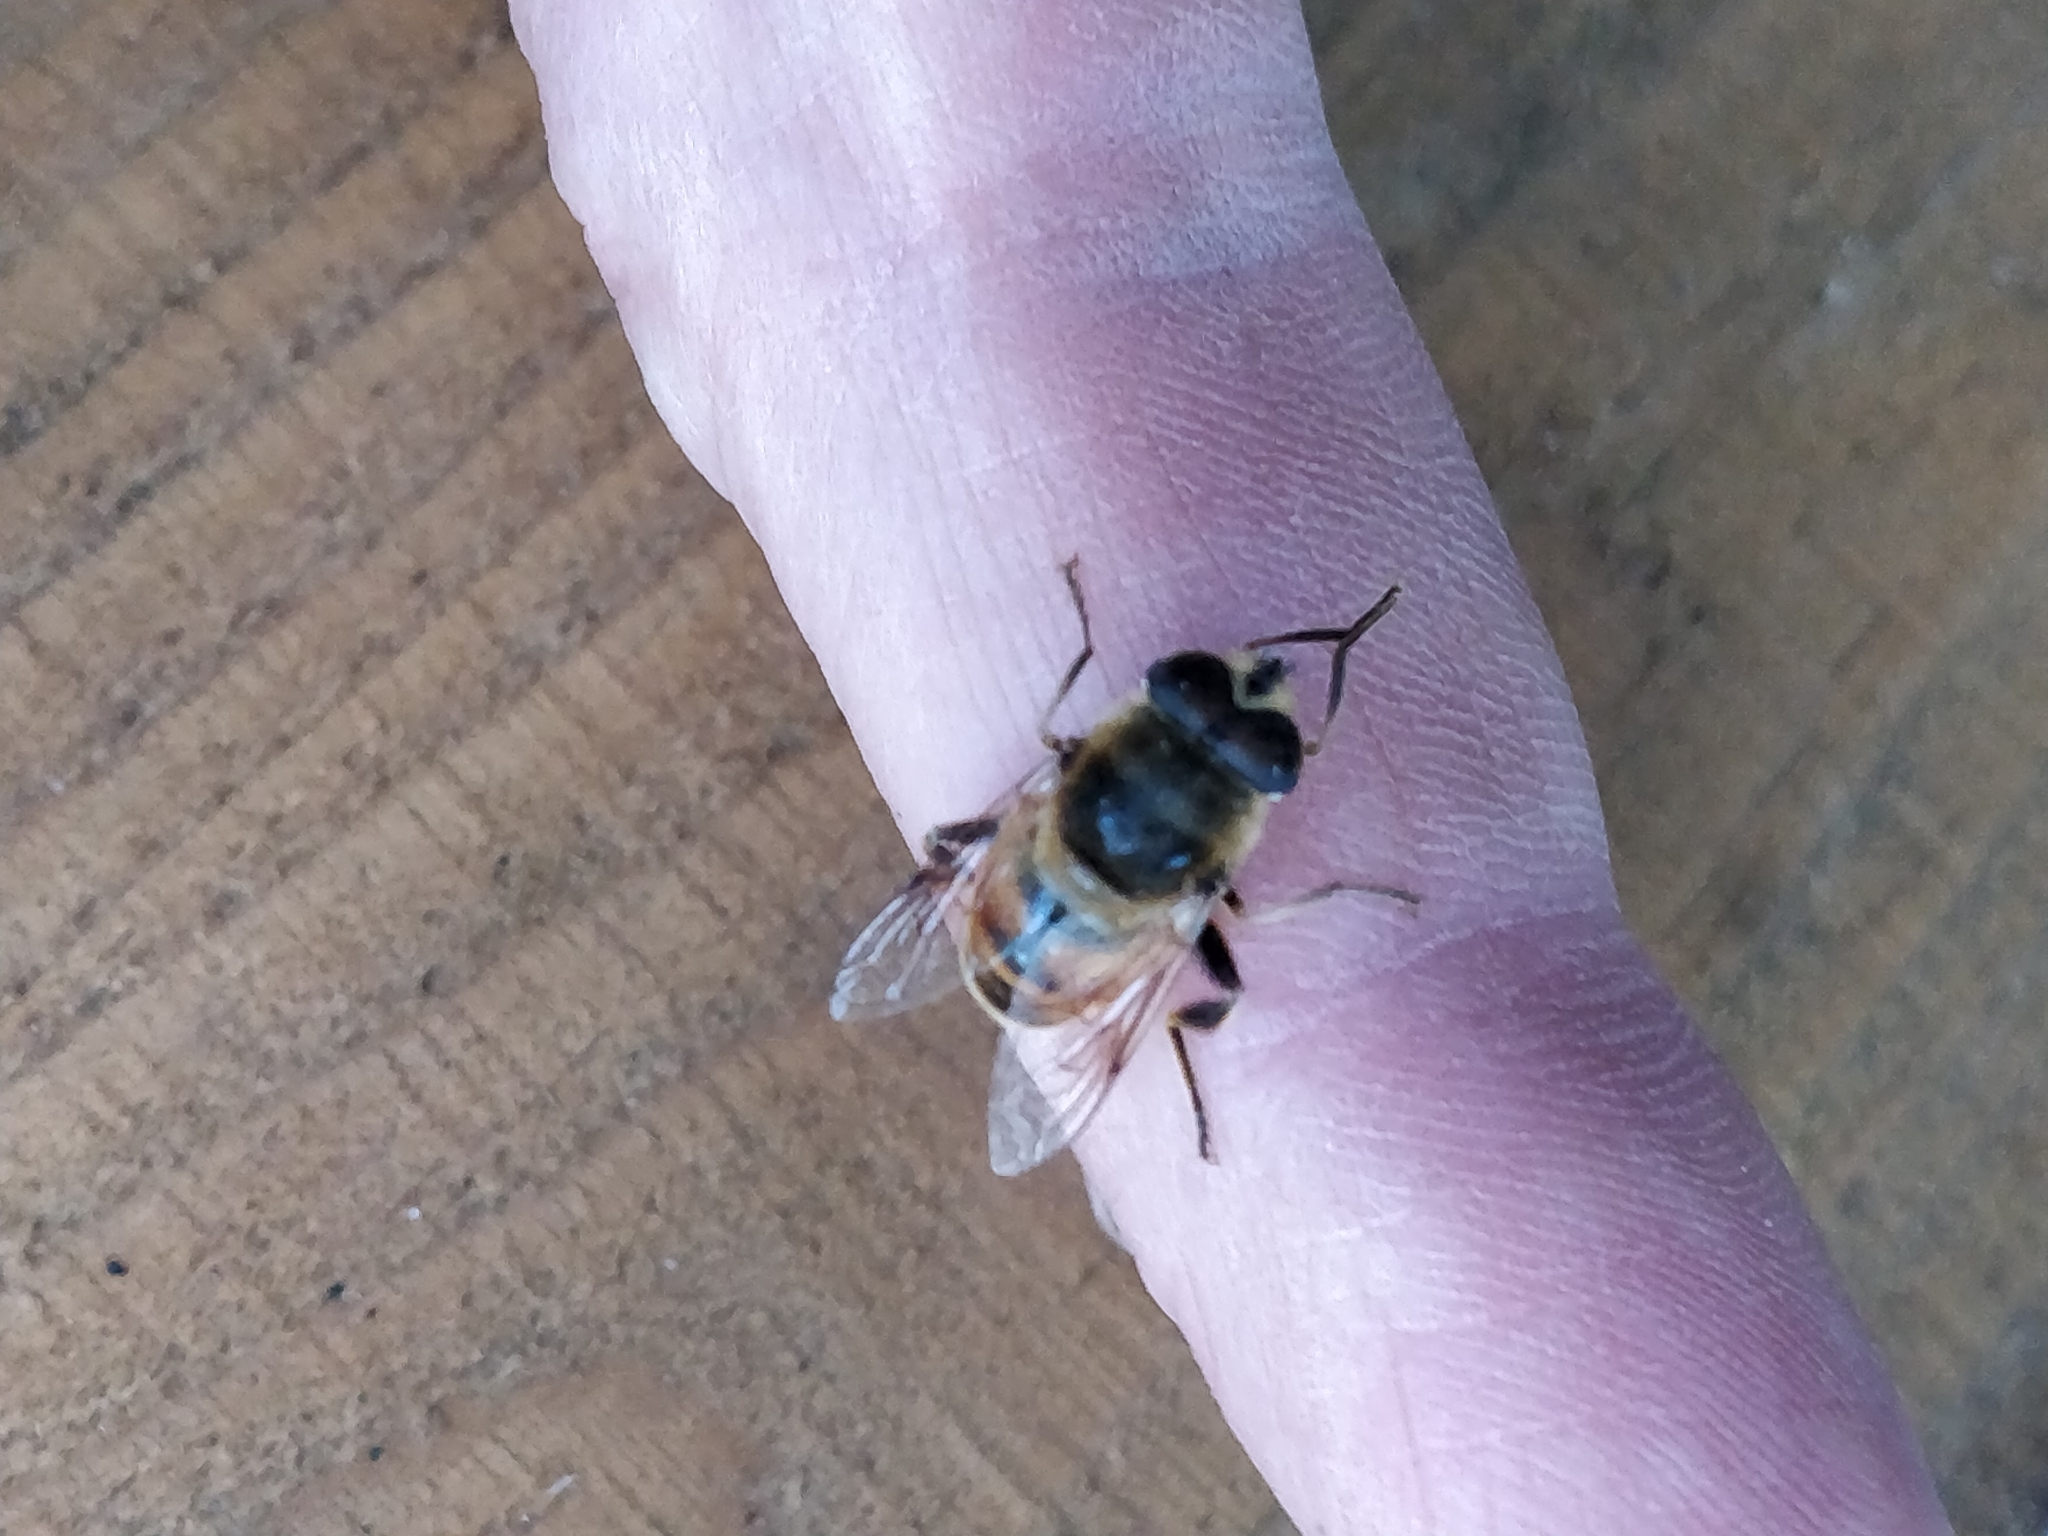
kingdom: Animalia
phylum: Arthropoda
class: Insecta
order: Diptera
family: Syrphidae
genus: Eristalis
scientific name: Eristalis tenax
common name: Drone fly
